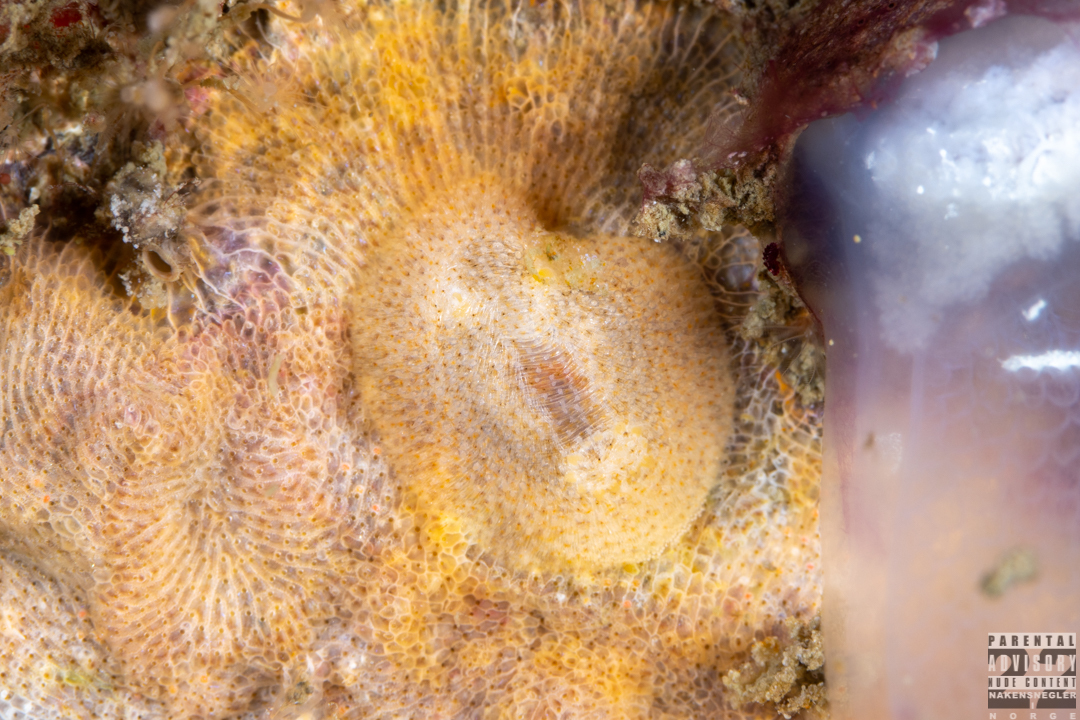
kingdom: Animalia
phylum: Mollusca
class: Gastropoda
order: Nudibranchia
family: Onchidorididae
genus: Idaliadoris
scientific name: Idaliadoris depressa
